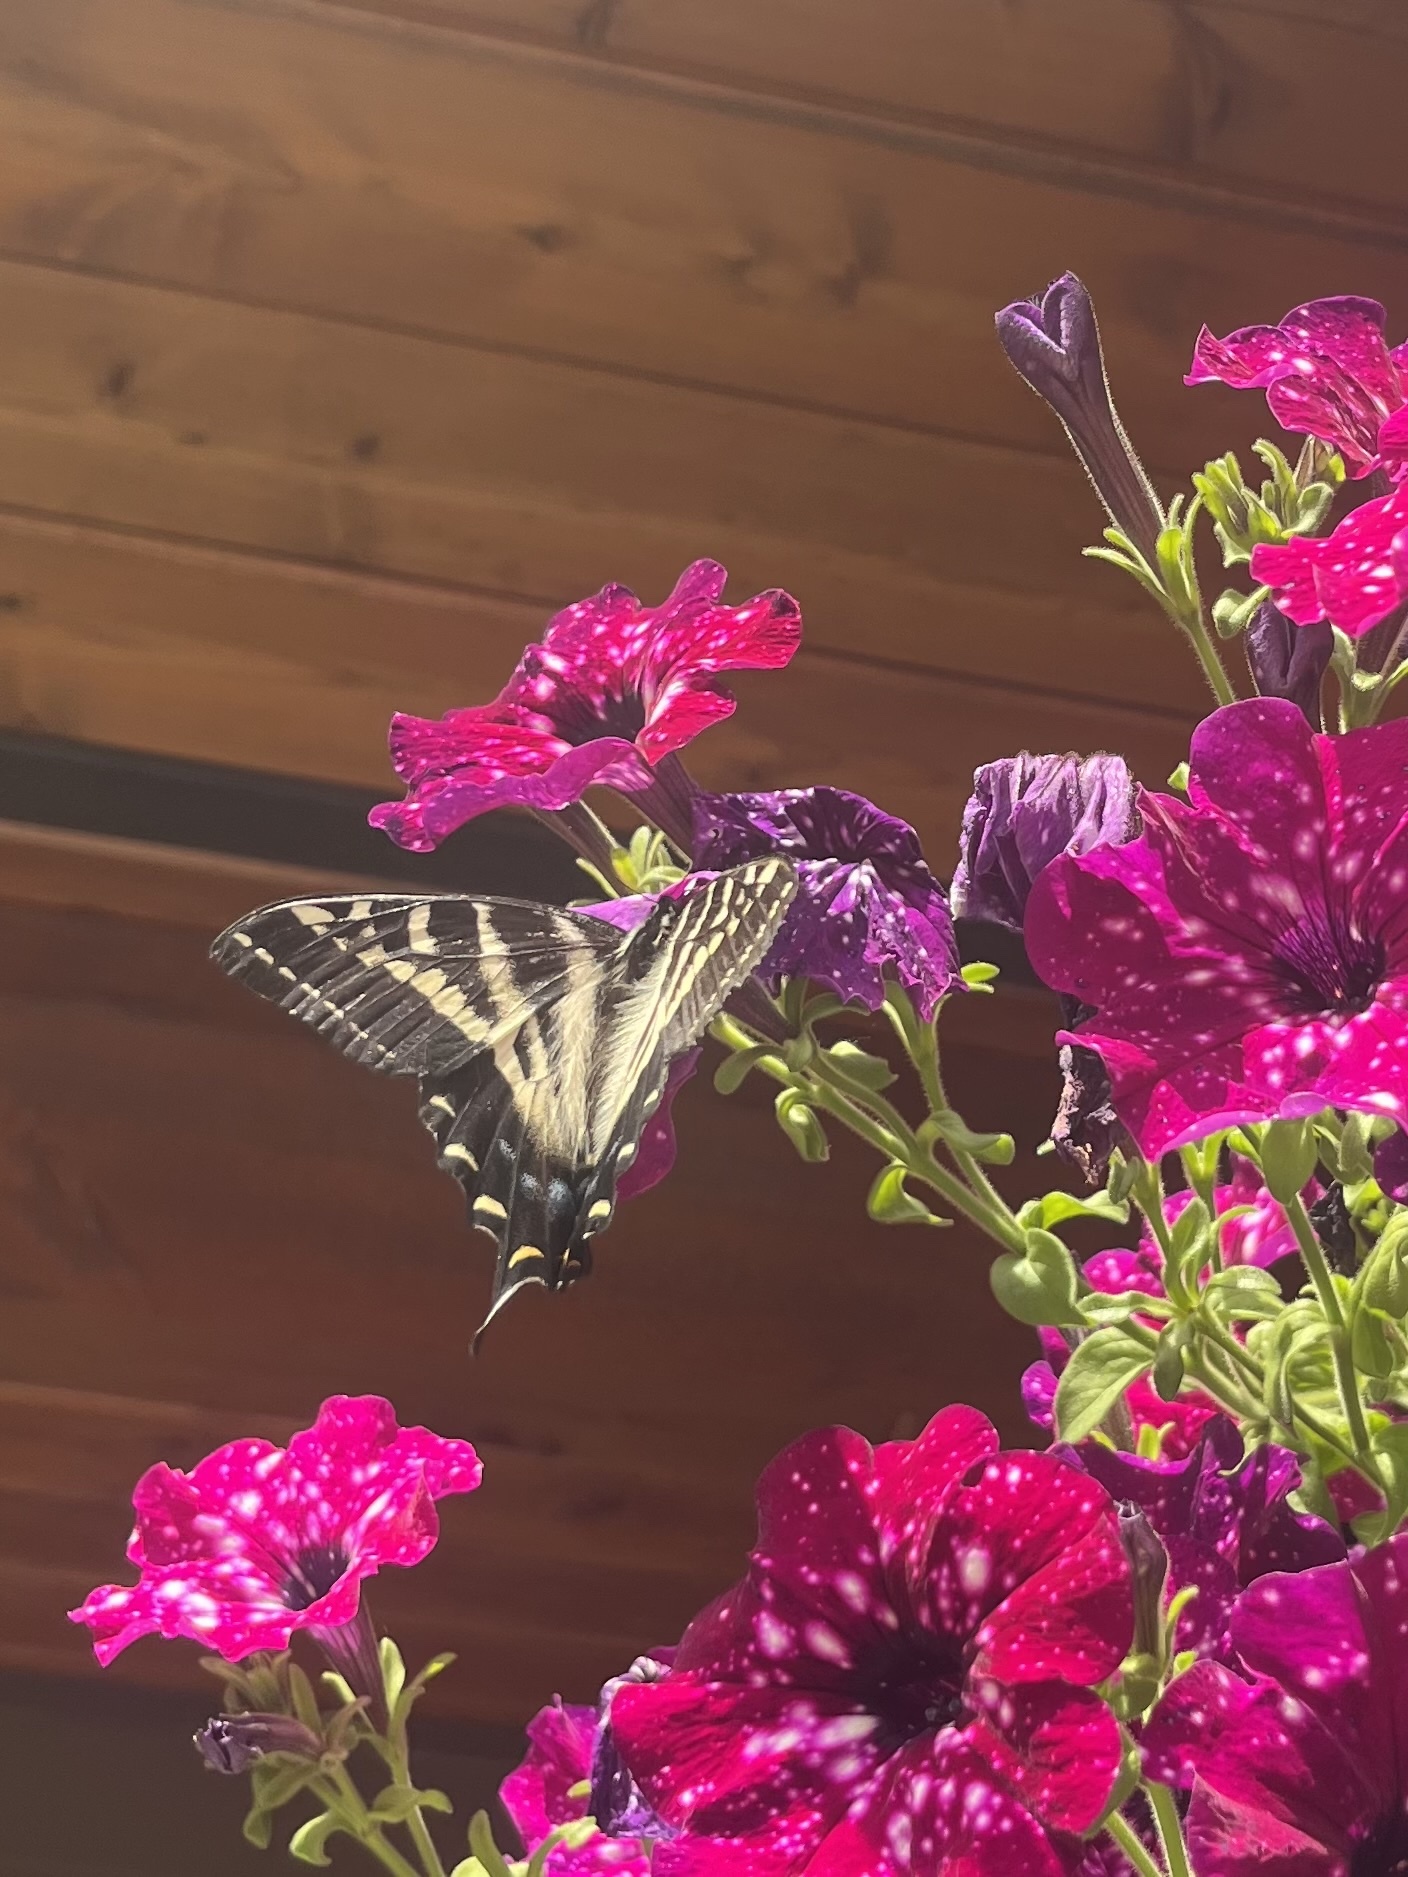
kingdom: Animalia
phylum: Arthropoda
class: Insecta
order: Lepidoptera
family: Papilionidae
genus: Papilio
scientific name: Papilio eurymedon
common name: Pale tiger swallowtail
